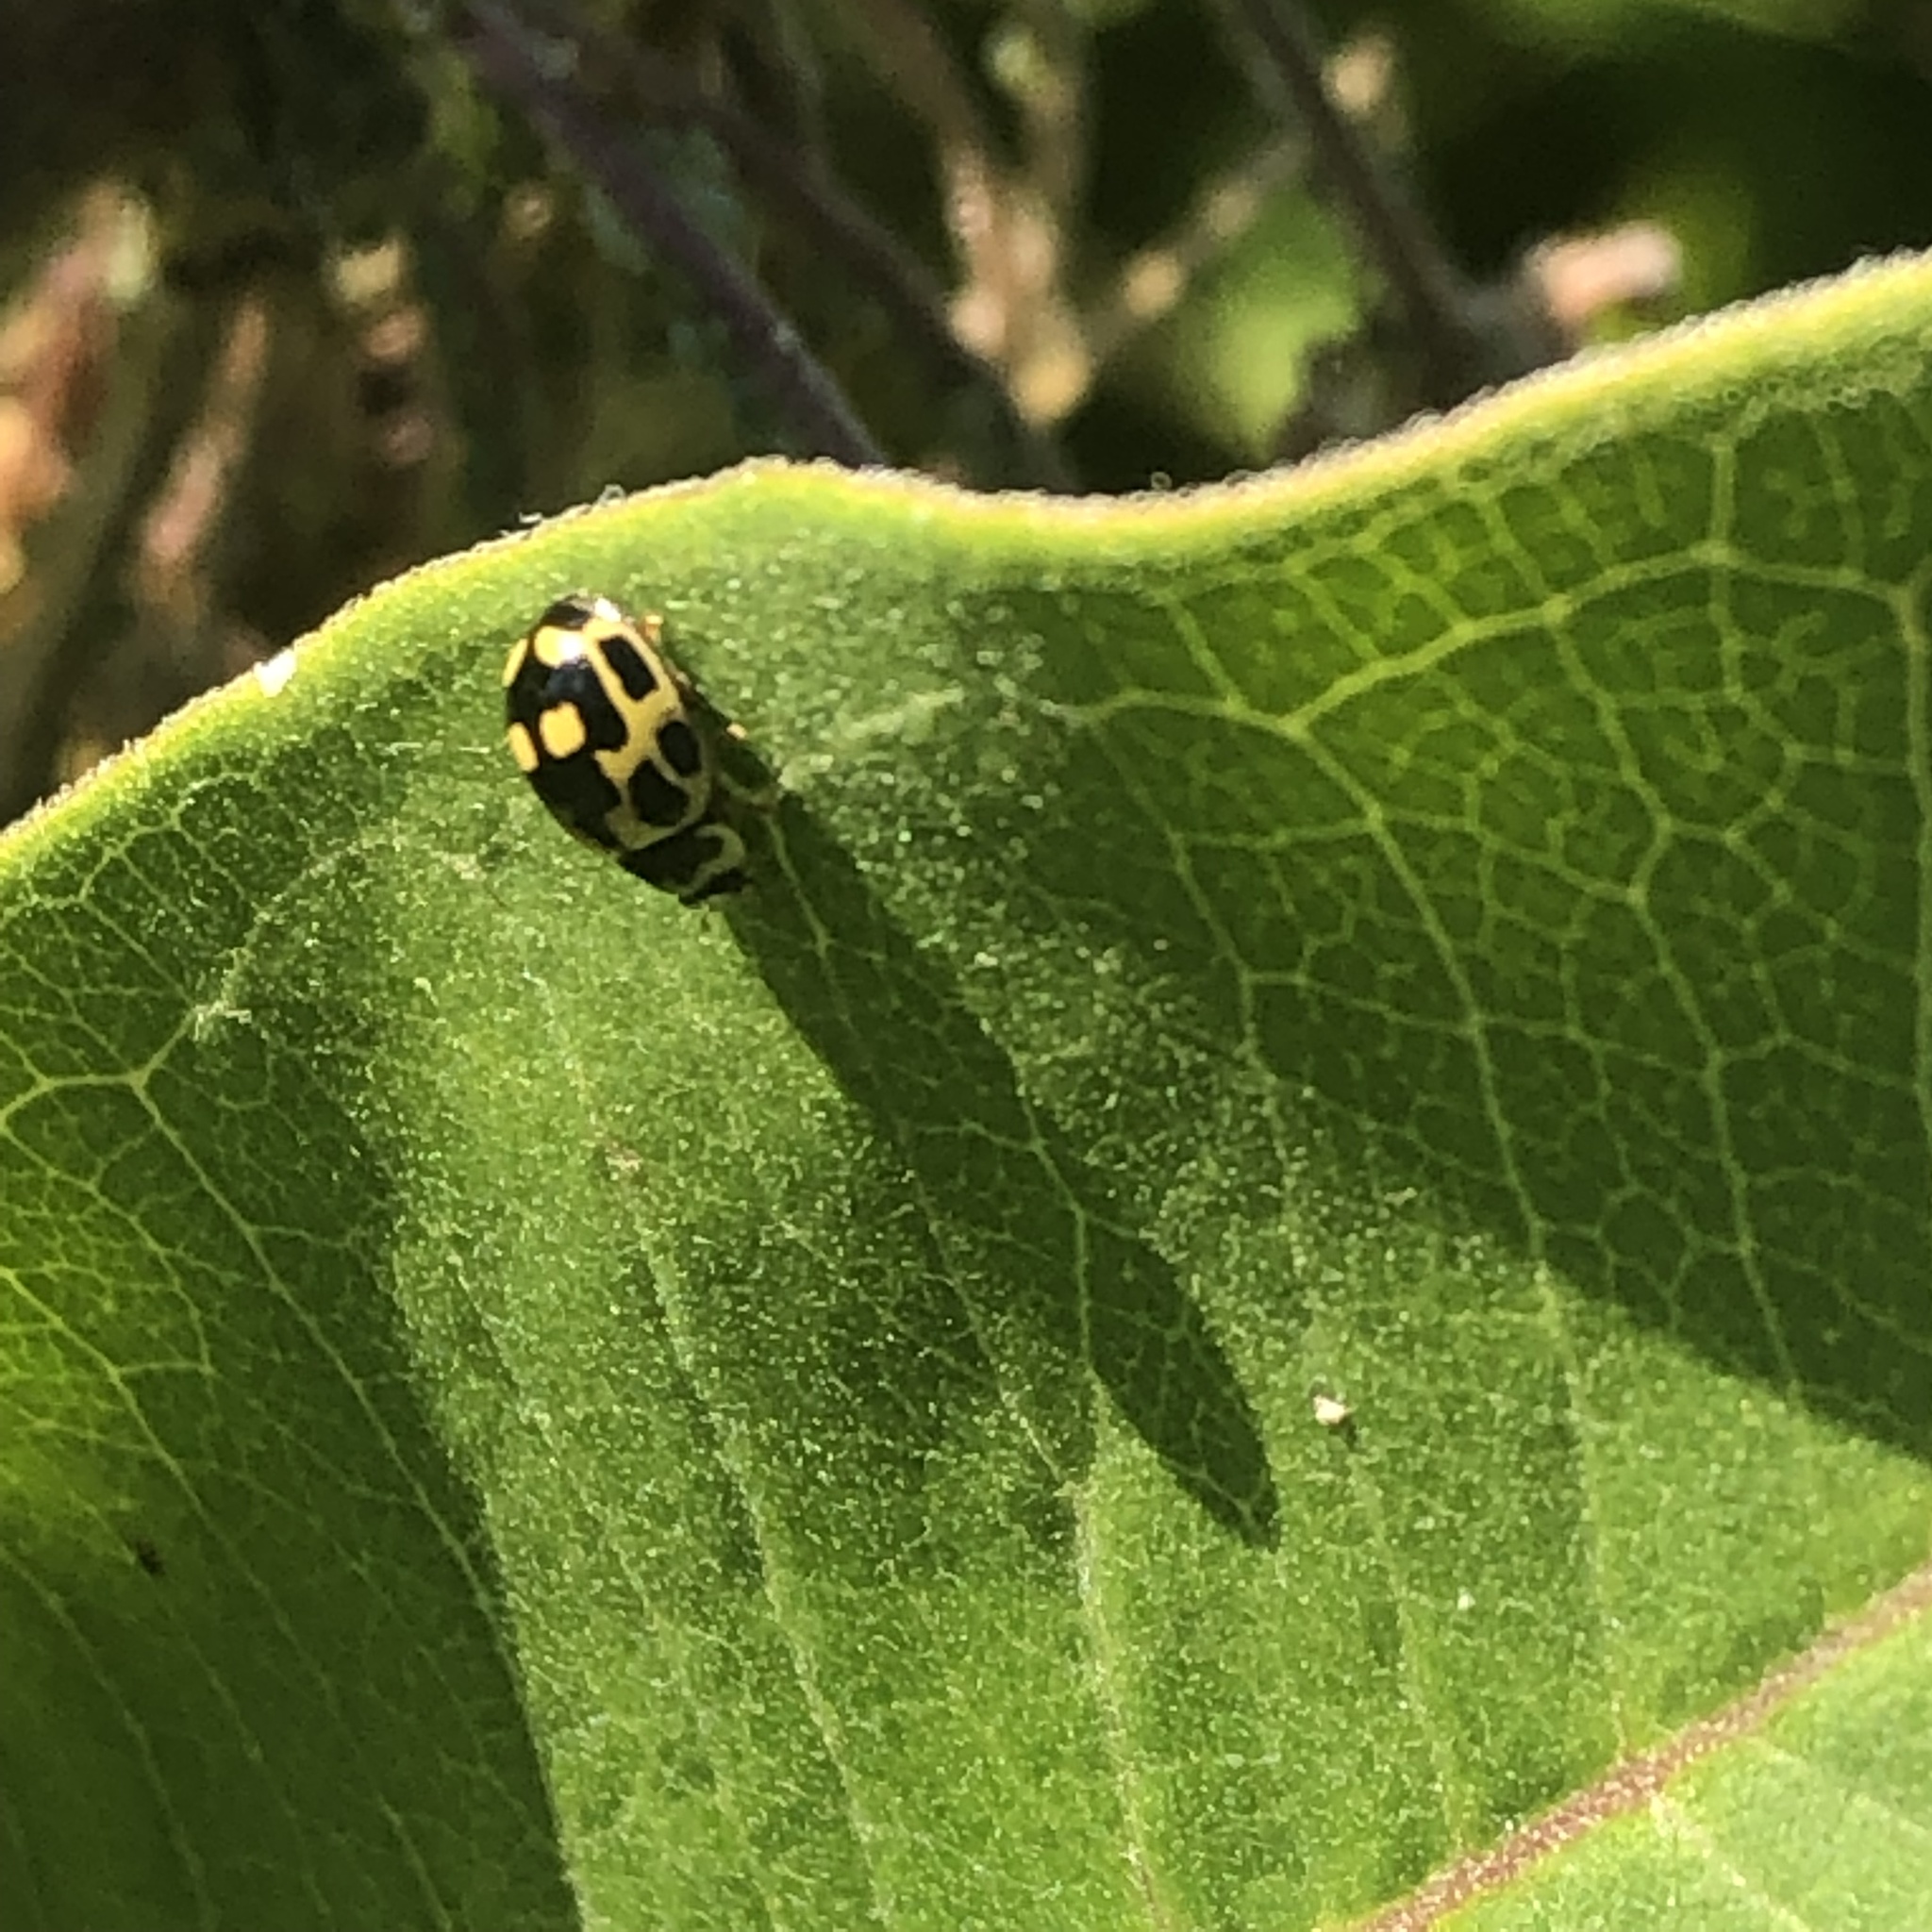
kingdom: Animalia
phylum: Arthropoda
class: Insecta
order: Coleoptera
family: Coccinellidae
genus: Propylaea
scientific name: Propylaea quatuordecimpunctata
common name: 14-spotted ladybird beetle
